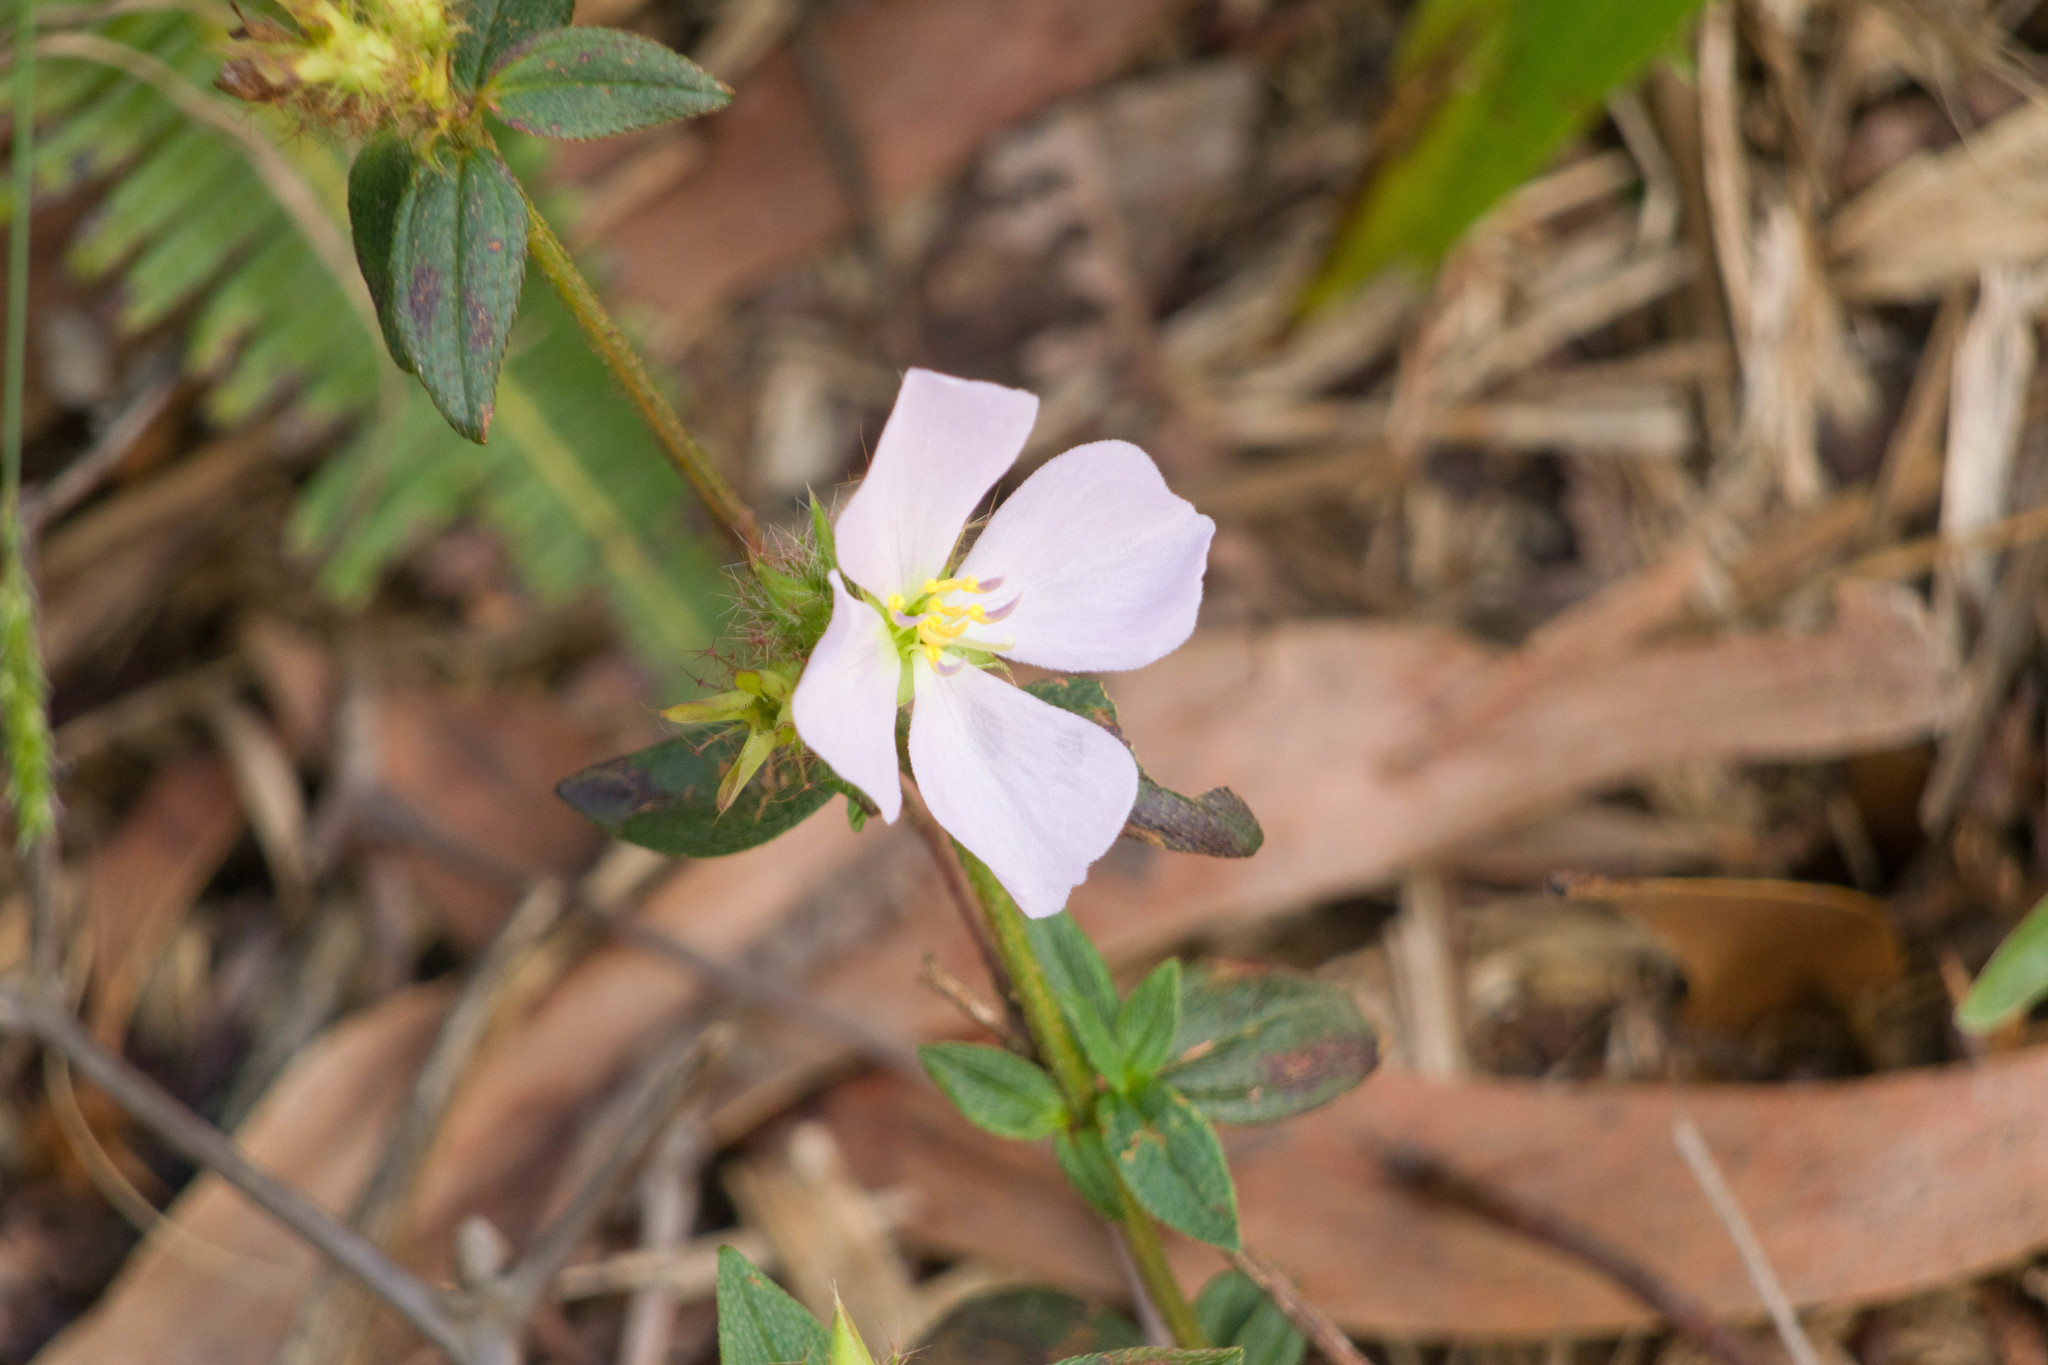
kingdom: Plantae
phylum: Tracheophyta
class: Magnoliopsida
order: Myrtales
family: Melastomataceae
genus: Pterolepis
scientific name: Pterolepis glomerata
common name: False meadowbeauty
